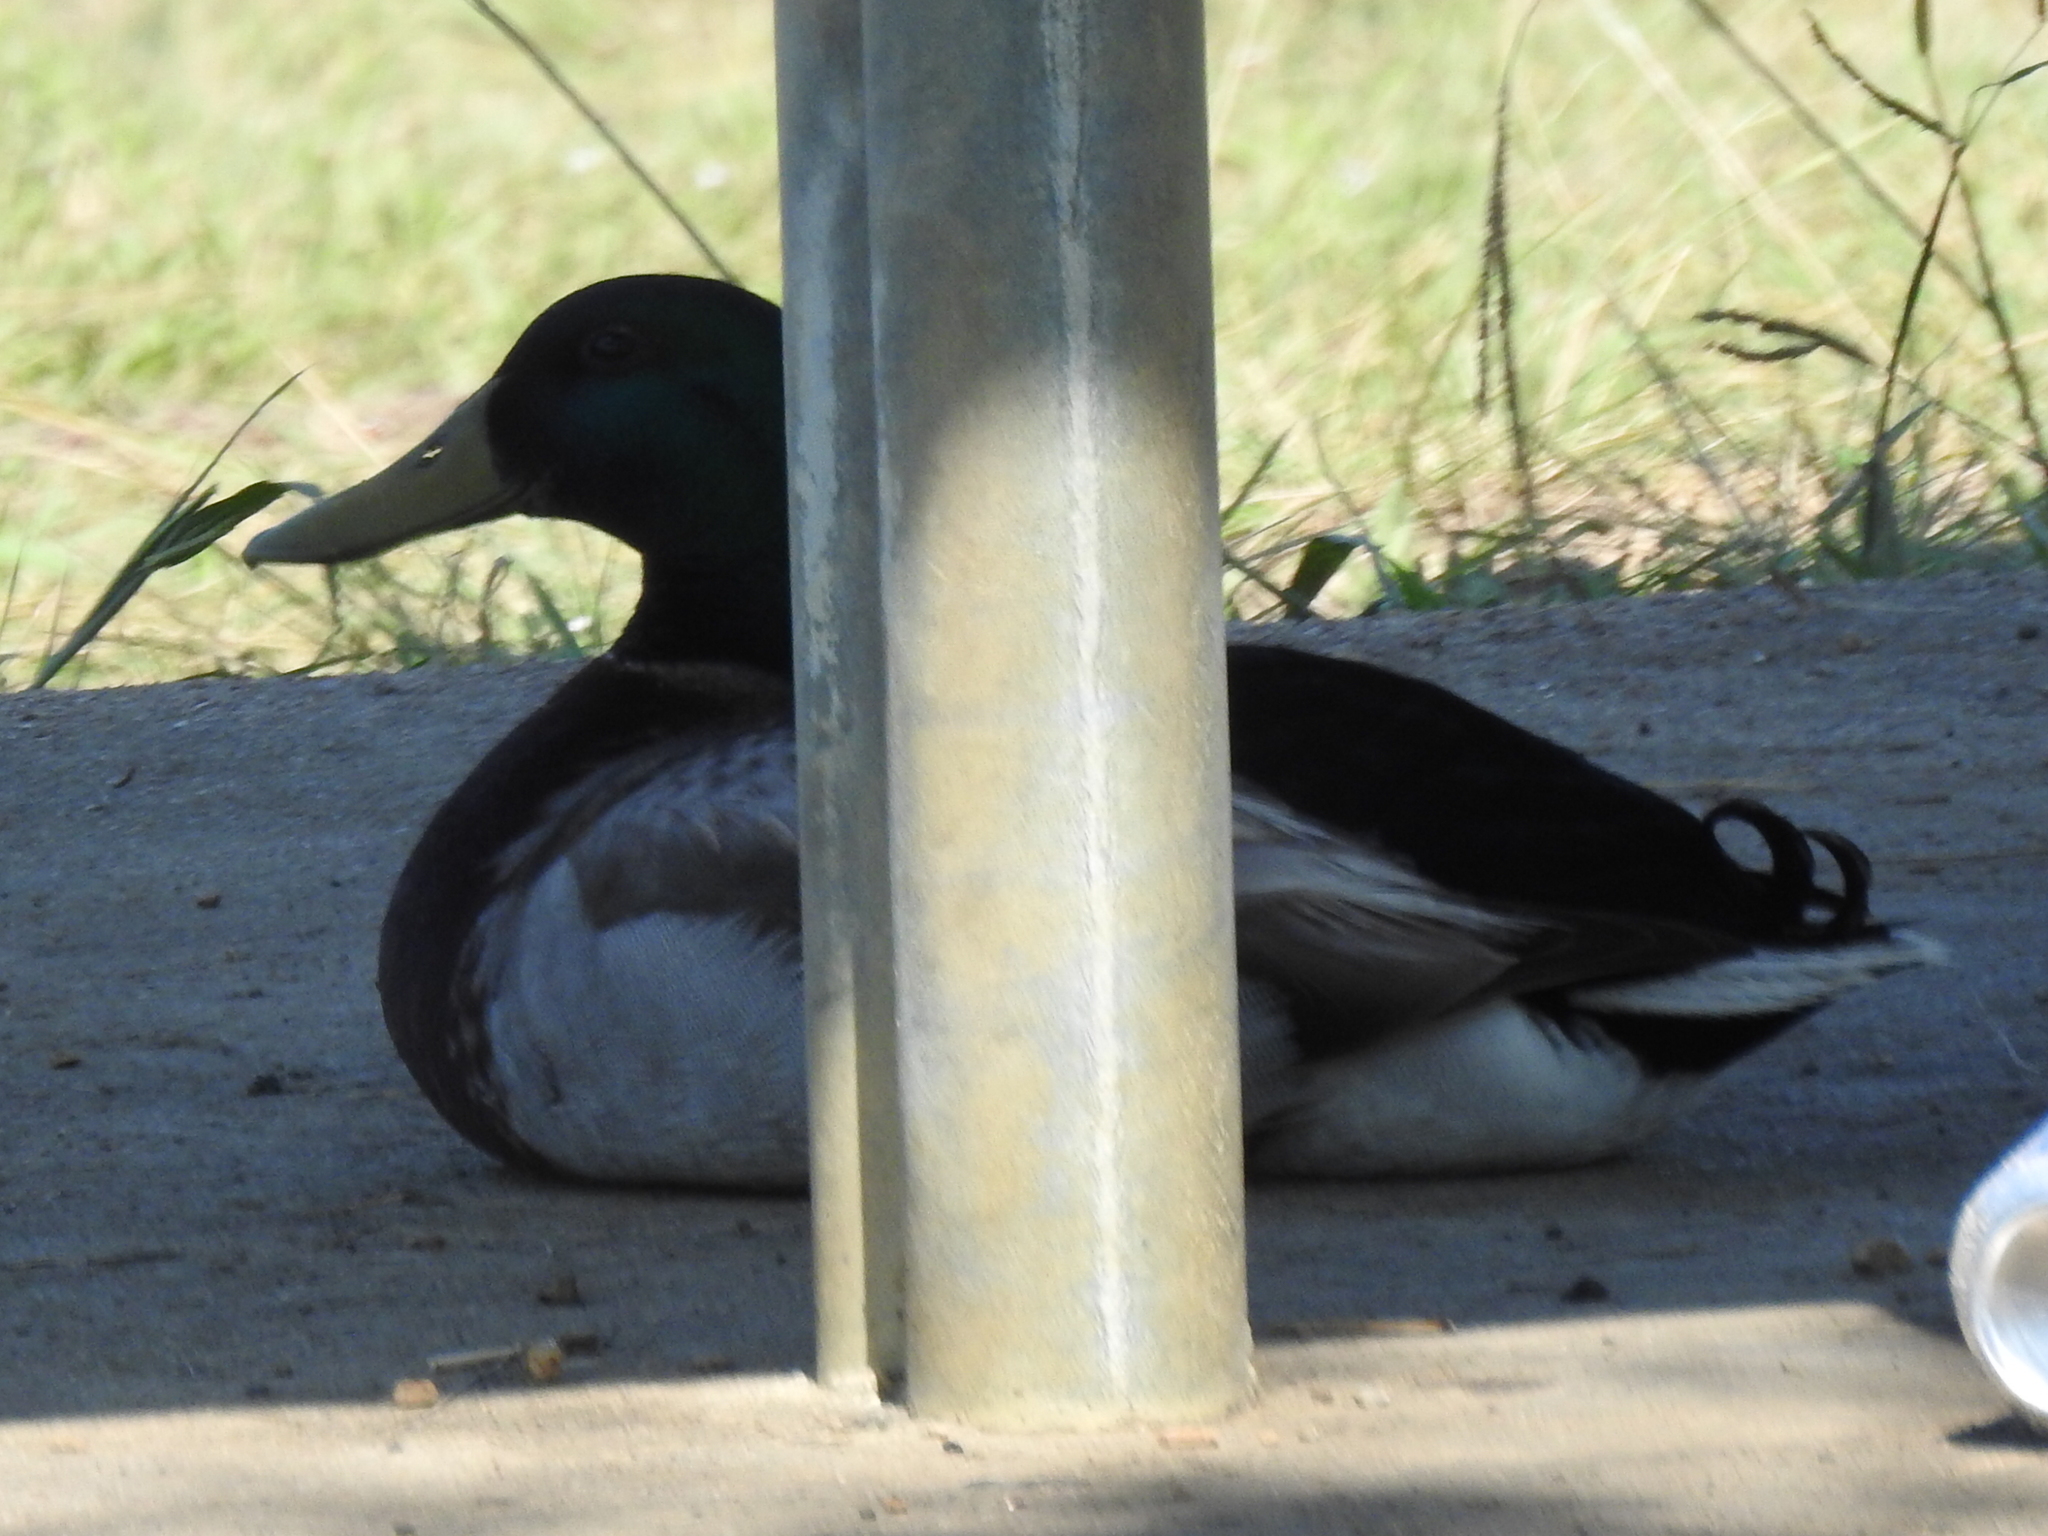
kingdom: Animalia
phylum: Chordata
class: Aves
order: Anseriformes
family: Anatidae
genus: Anas
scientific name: Anas platyrhynchos
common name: Mallard
